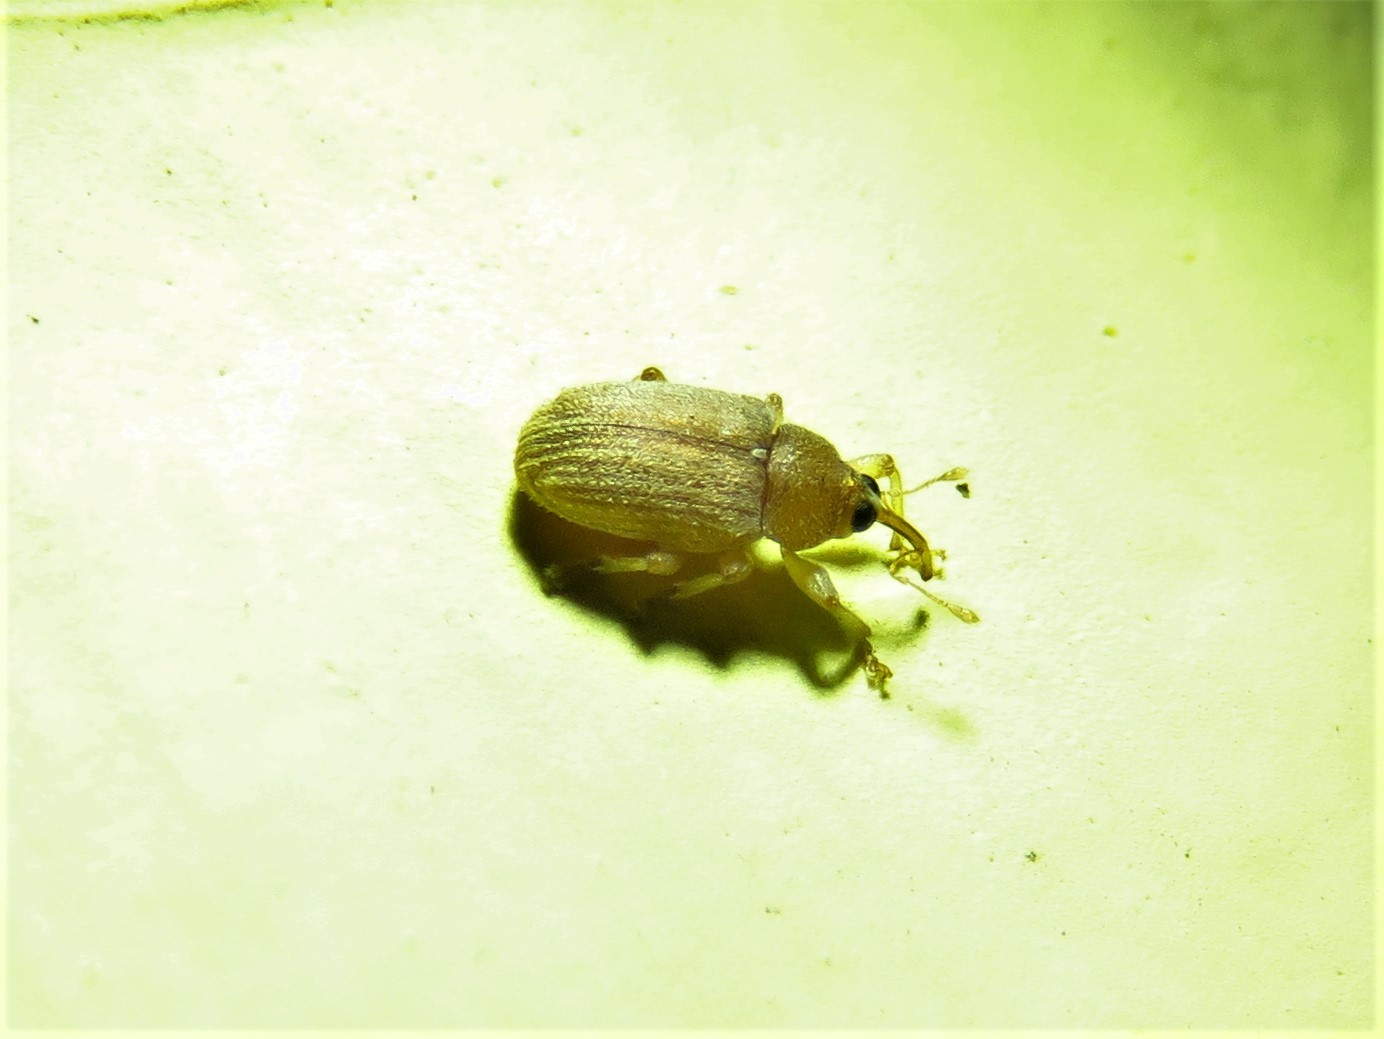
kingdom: Animalia
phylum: Arthropoda
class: Insecta
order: Coleoptera
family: Curculionidae
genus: Lignyodes
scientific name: Lignyodes helvolus
